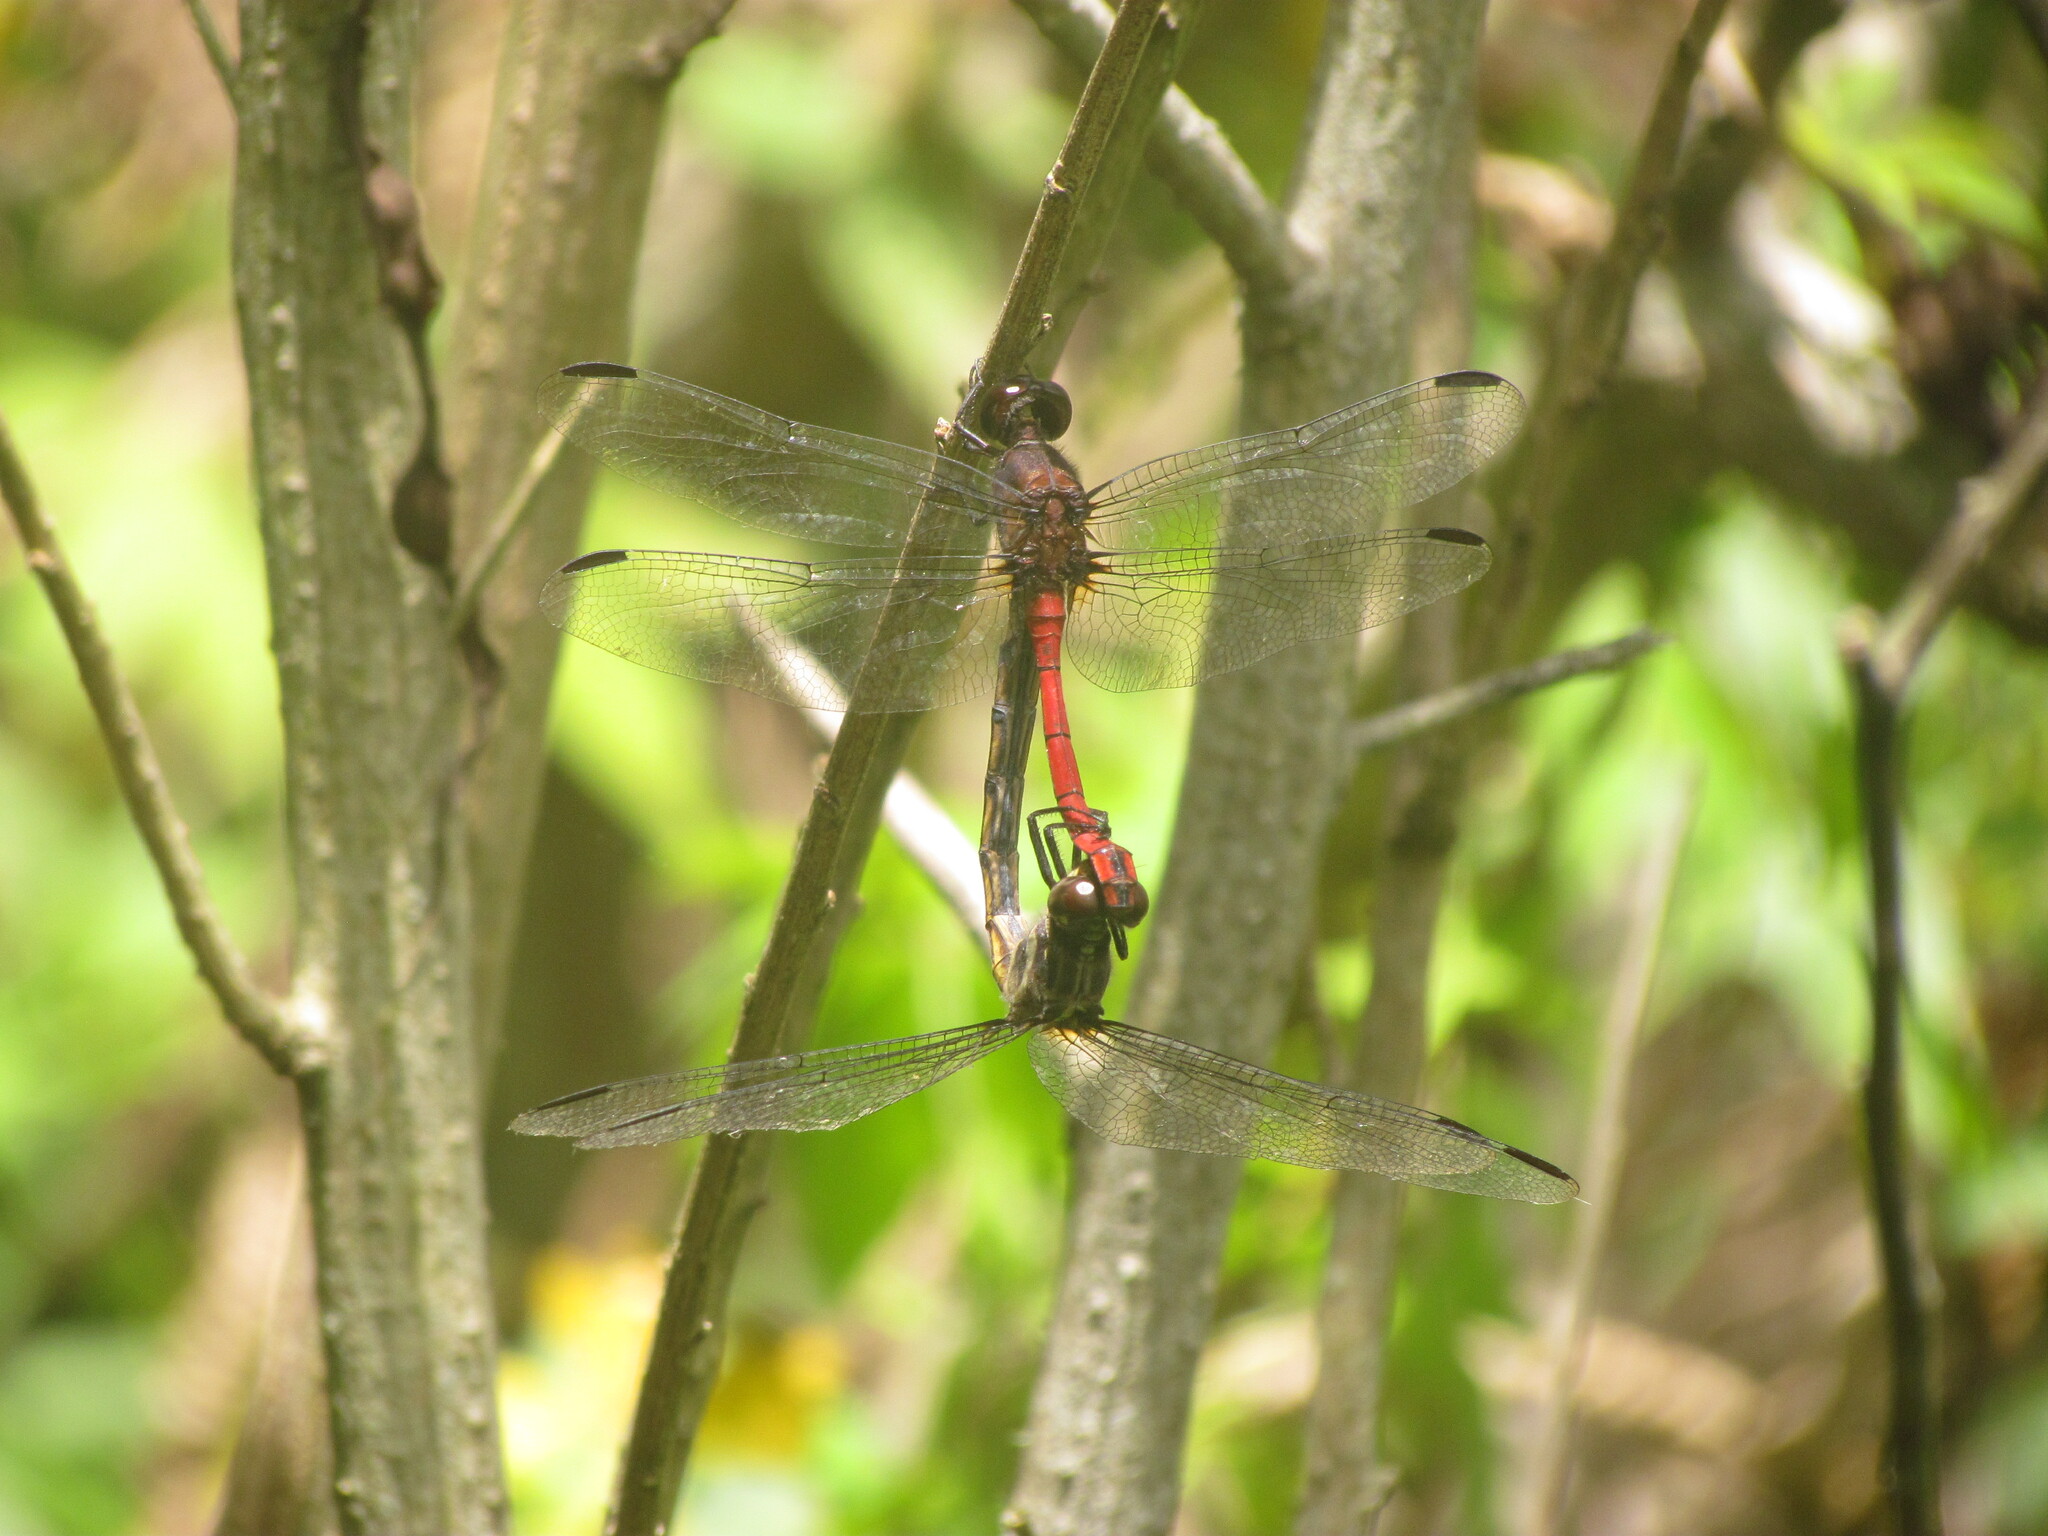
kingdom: Animalia
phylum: Arthropoda
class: Insecta
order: Odonata
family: Libellulidae
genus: Orthemis
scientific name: Orthemis ambinigra
